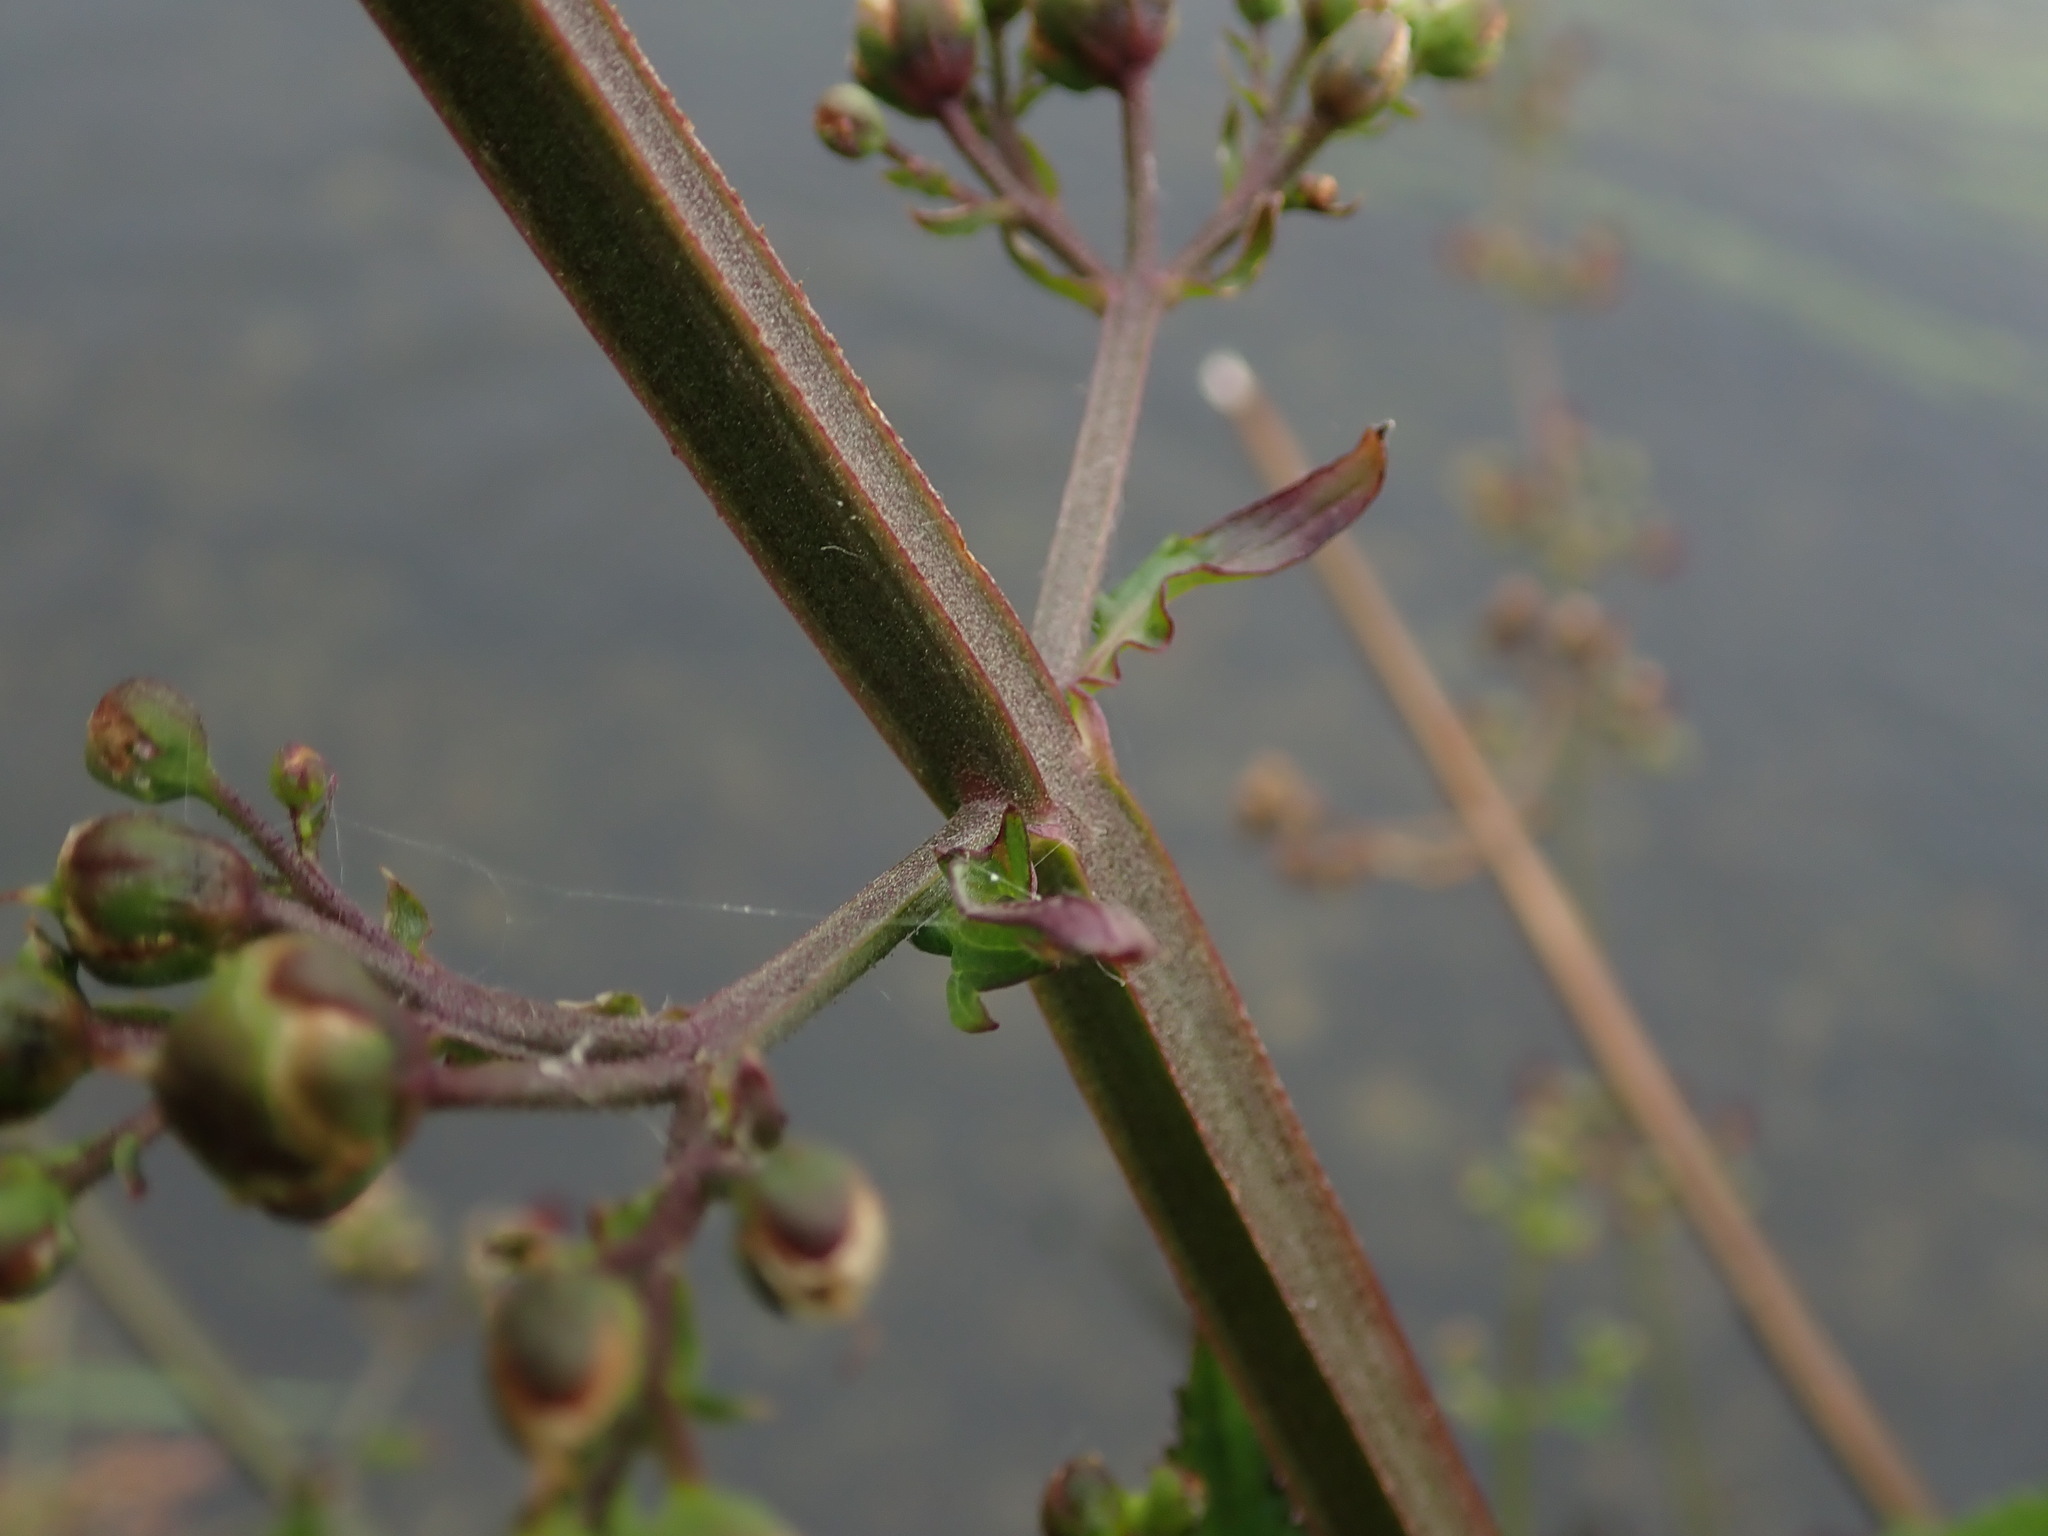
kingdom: Plantae
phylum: Tracheophyta
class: Magnoliopsida
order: Lamiales
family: Scrophulariaceae
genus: Scrophularia
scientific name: Scrophularia auriculata
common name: Water betony
